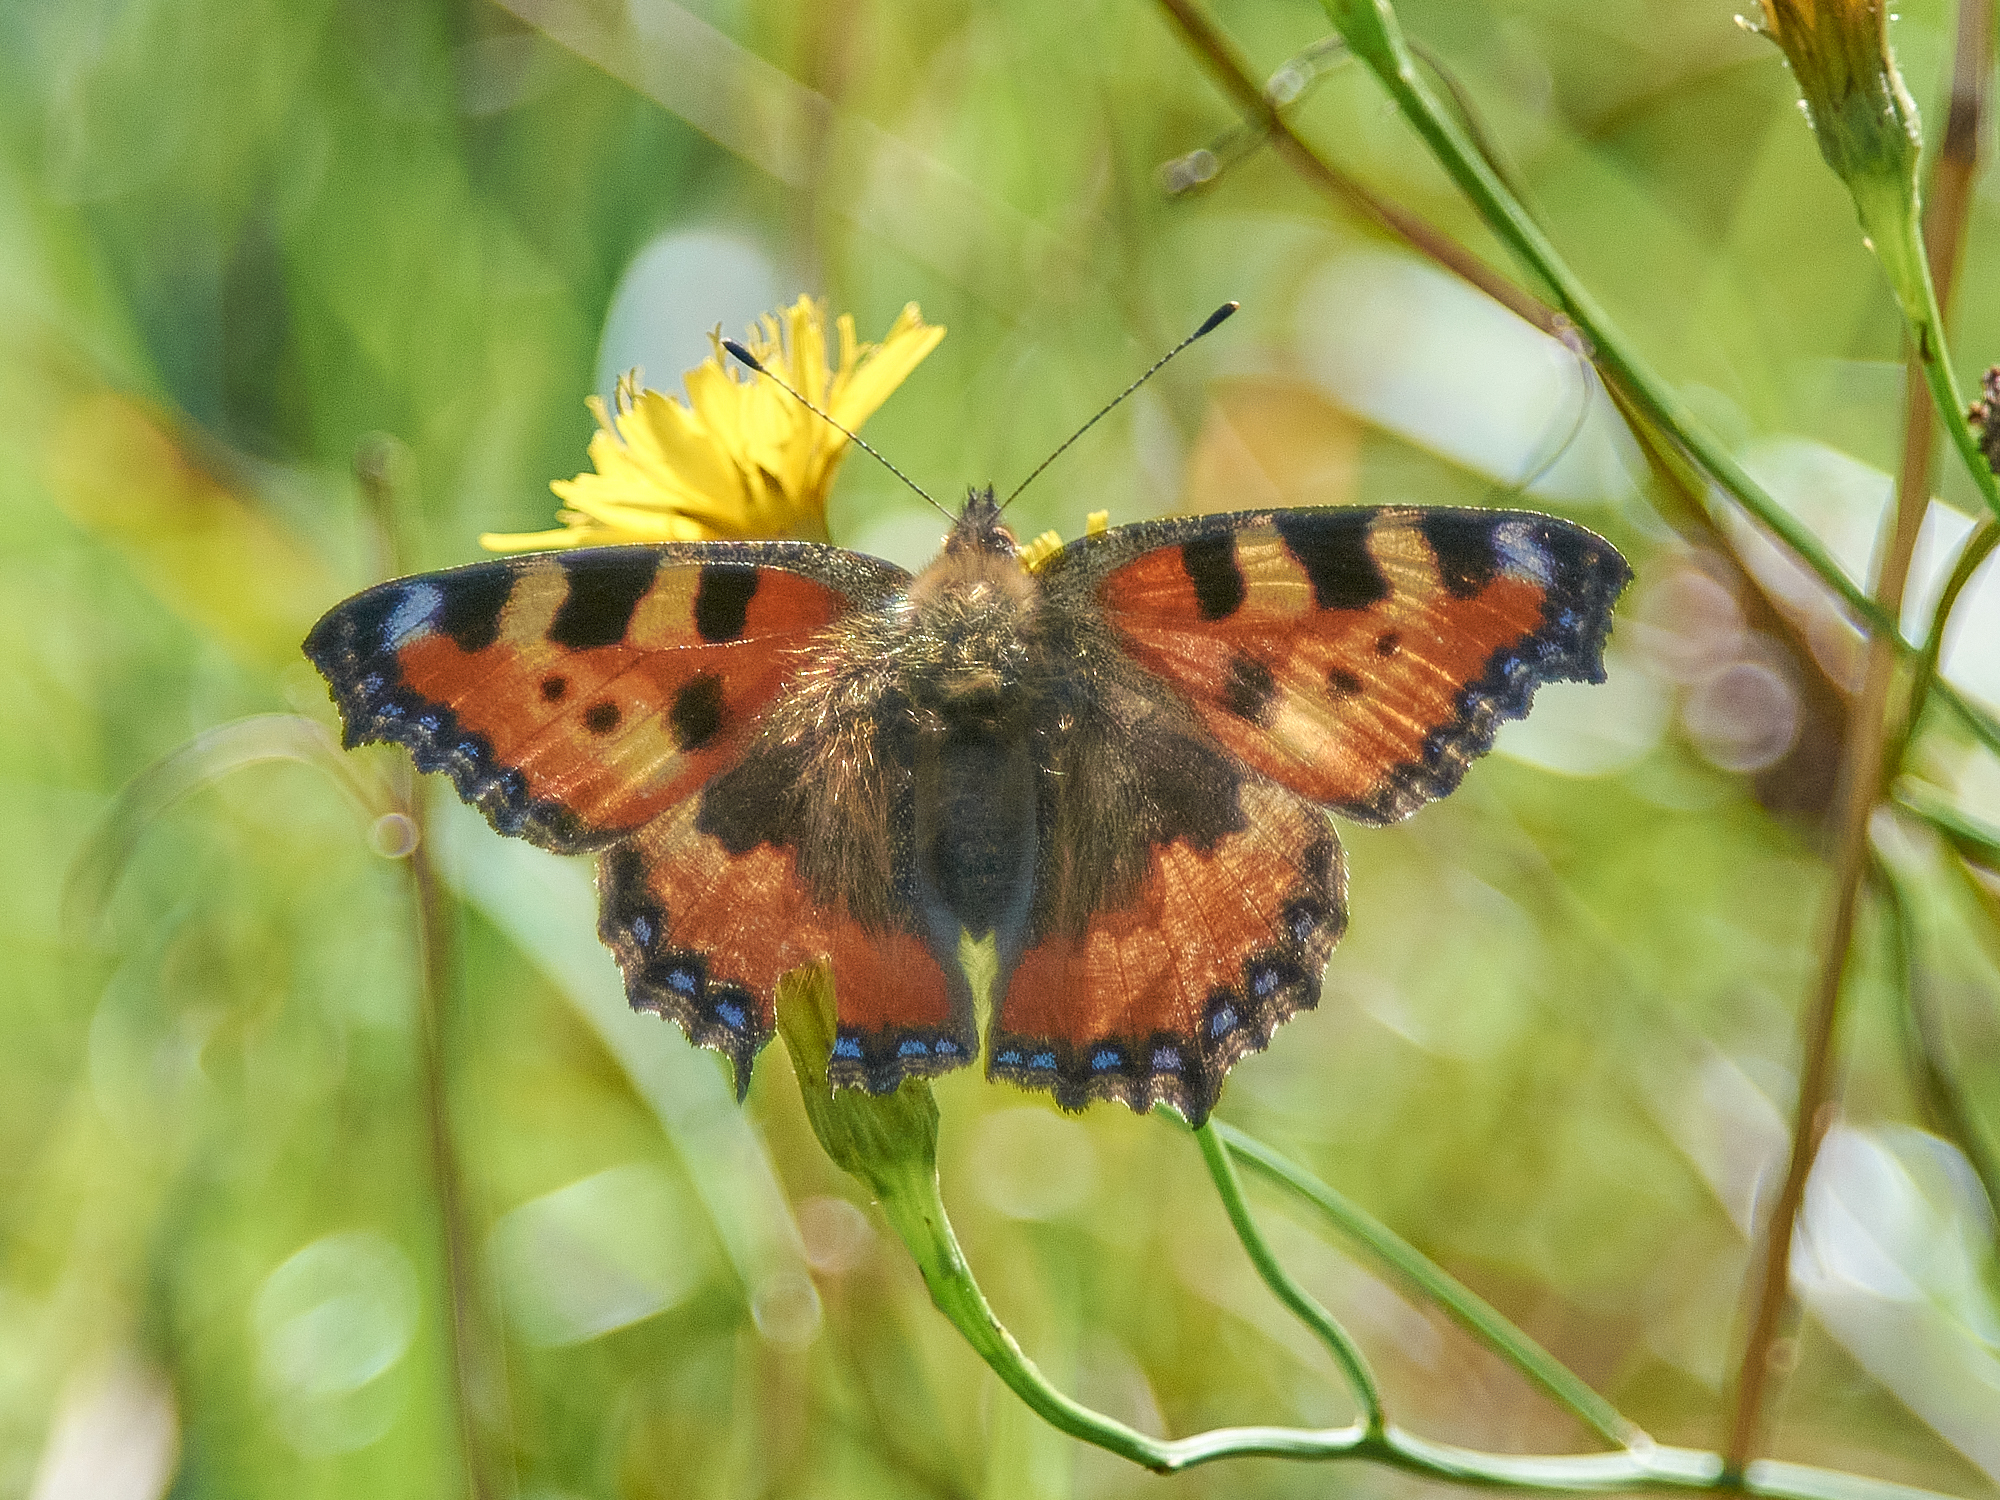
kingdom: Animalia
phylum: Arthropoda
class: Insecta
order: Lepidoptera
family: Nymphalidae
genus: Aglais
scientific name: Aglais urticae
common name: Small tortoiseshell
